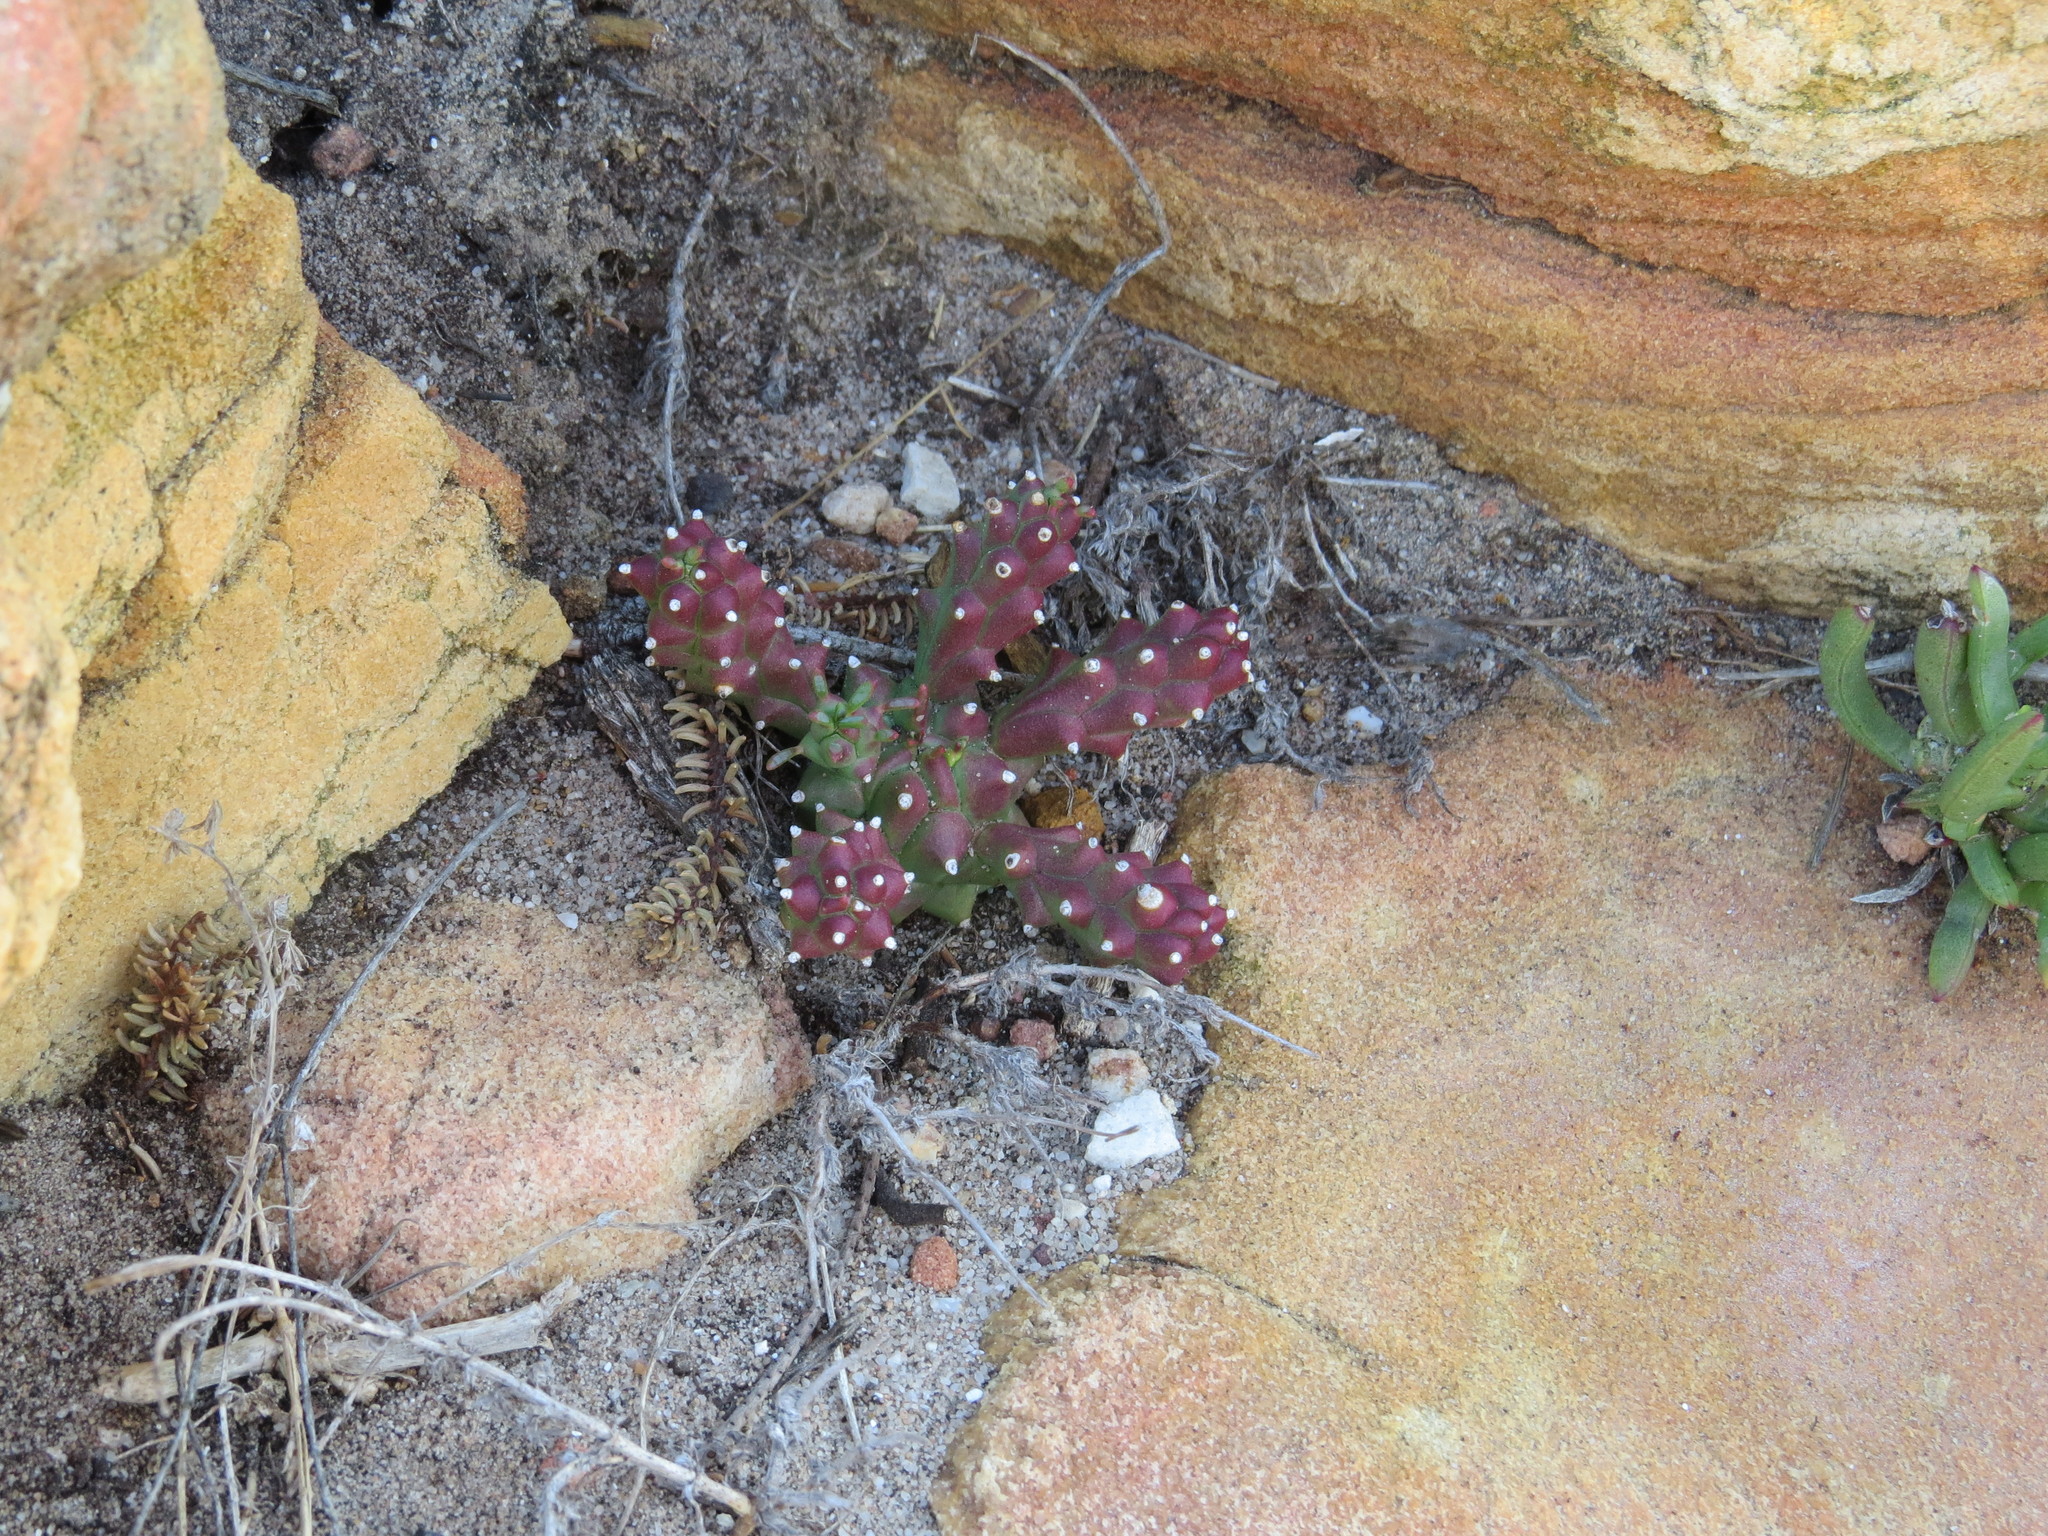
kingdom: Plantae
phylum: Tracheophyta
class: Magnoliopsida
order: Malpighiales
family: Euphorbiaceae
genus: Euphorbia
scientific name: Euphorbia caput-medusae
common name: Medusa's-head
